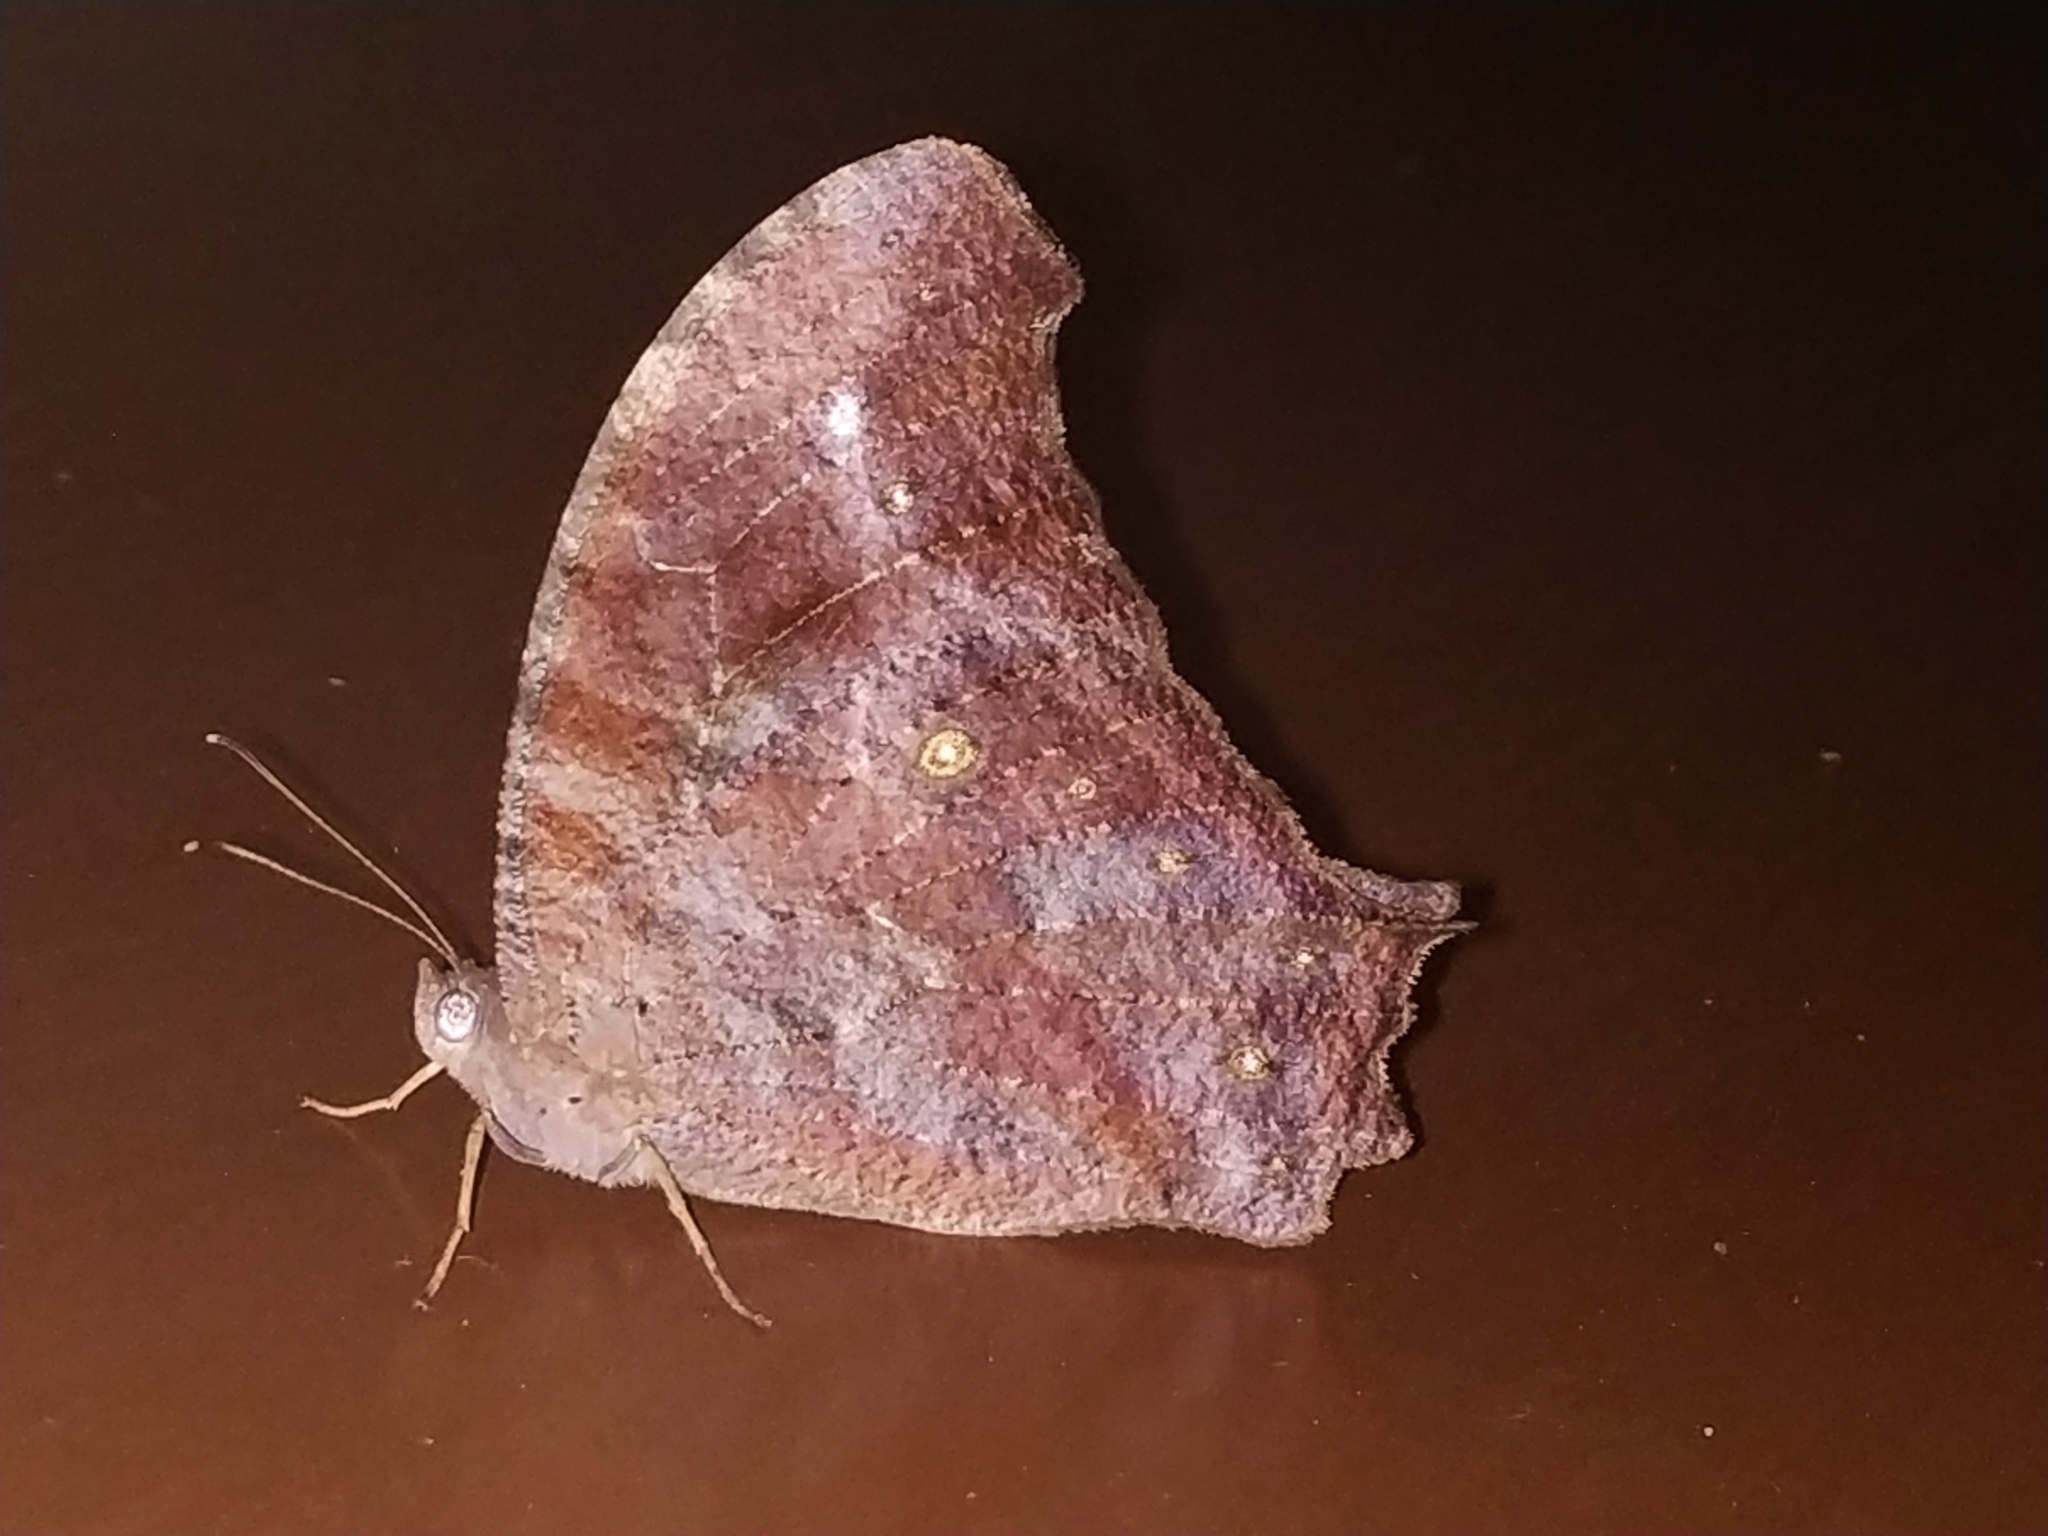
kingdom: Animalia
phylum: Arthropoda
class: Insecta
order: Lepidoptera
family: Nymphalidae
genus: Melanitis
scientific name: Melanitis leda
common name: Twilight brown
